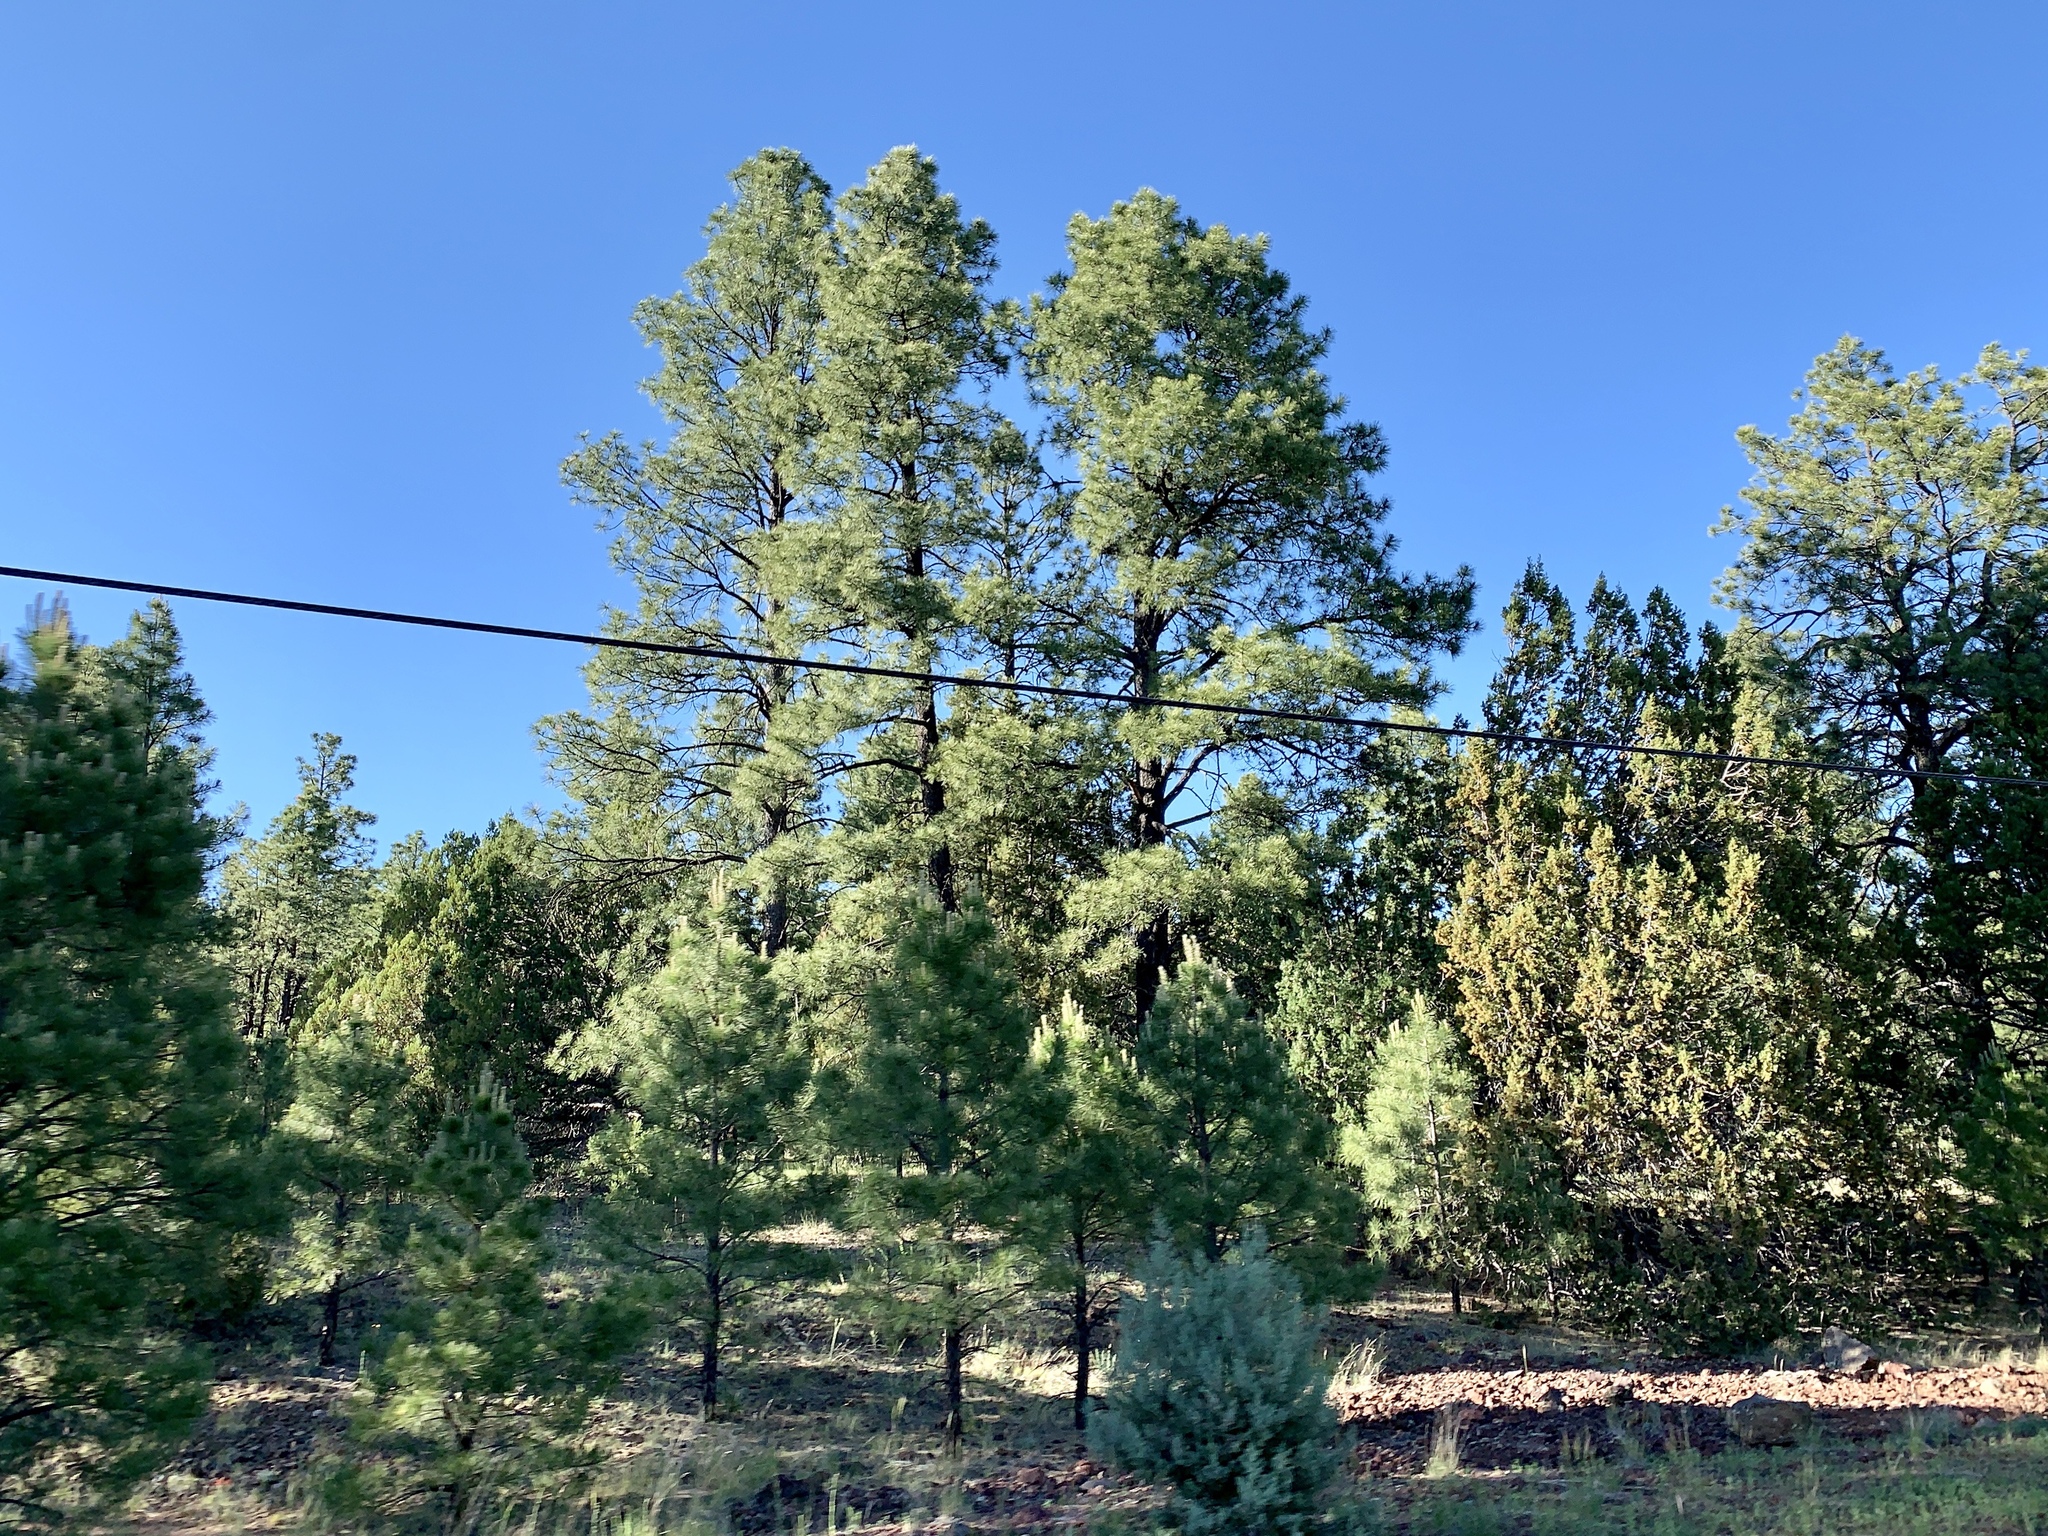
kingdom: Plantae
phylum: Tracheophyta
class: Pinopsida
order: Pinales
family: Pinaceae
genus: Pinus
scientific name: Pinus ponderosa
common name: Western yellow-pine
